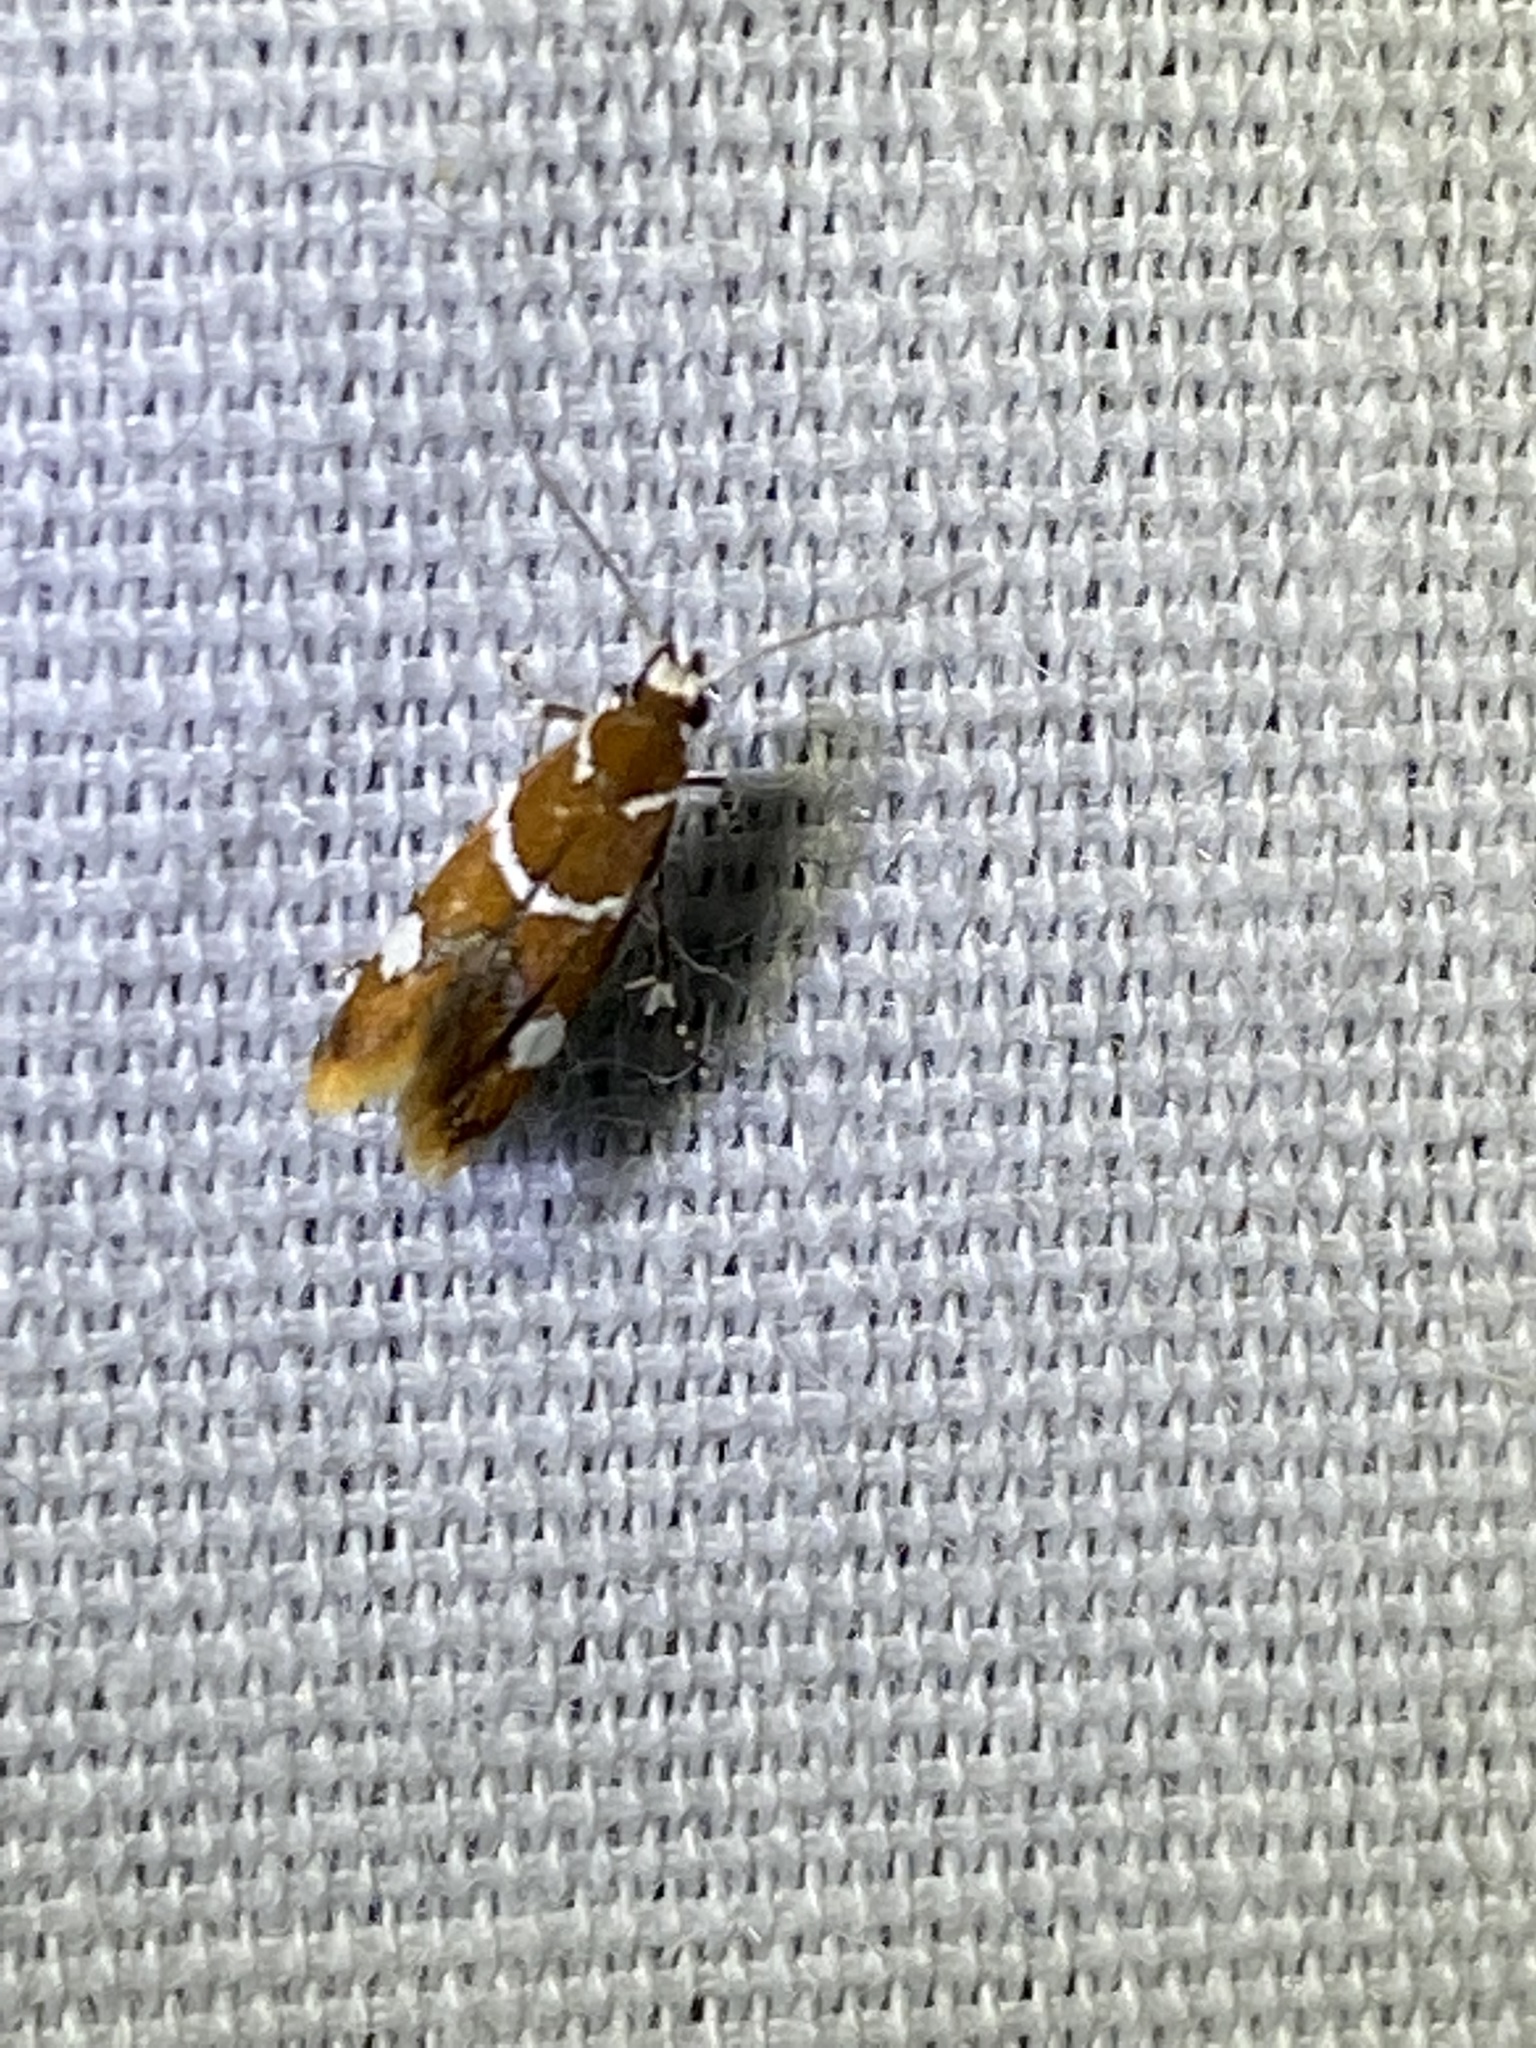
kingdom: Animalia
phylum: Arthropoda
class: Insecta
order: Lepidoptera
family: Oecophoridae
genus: Promalactis
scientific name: Promalactis suzukiella
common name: Moth
